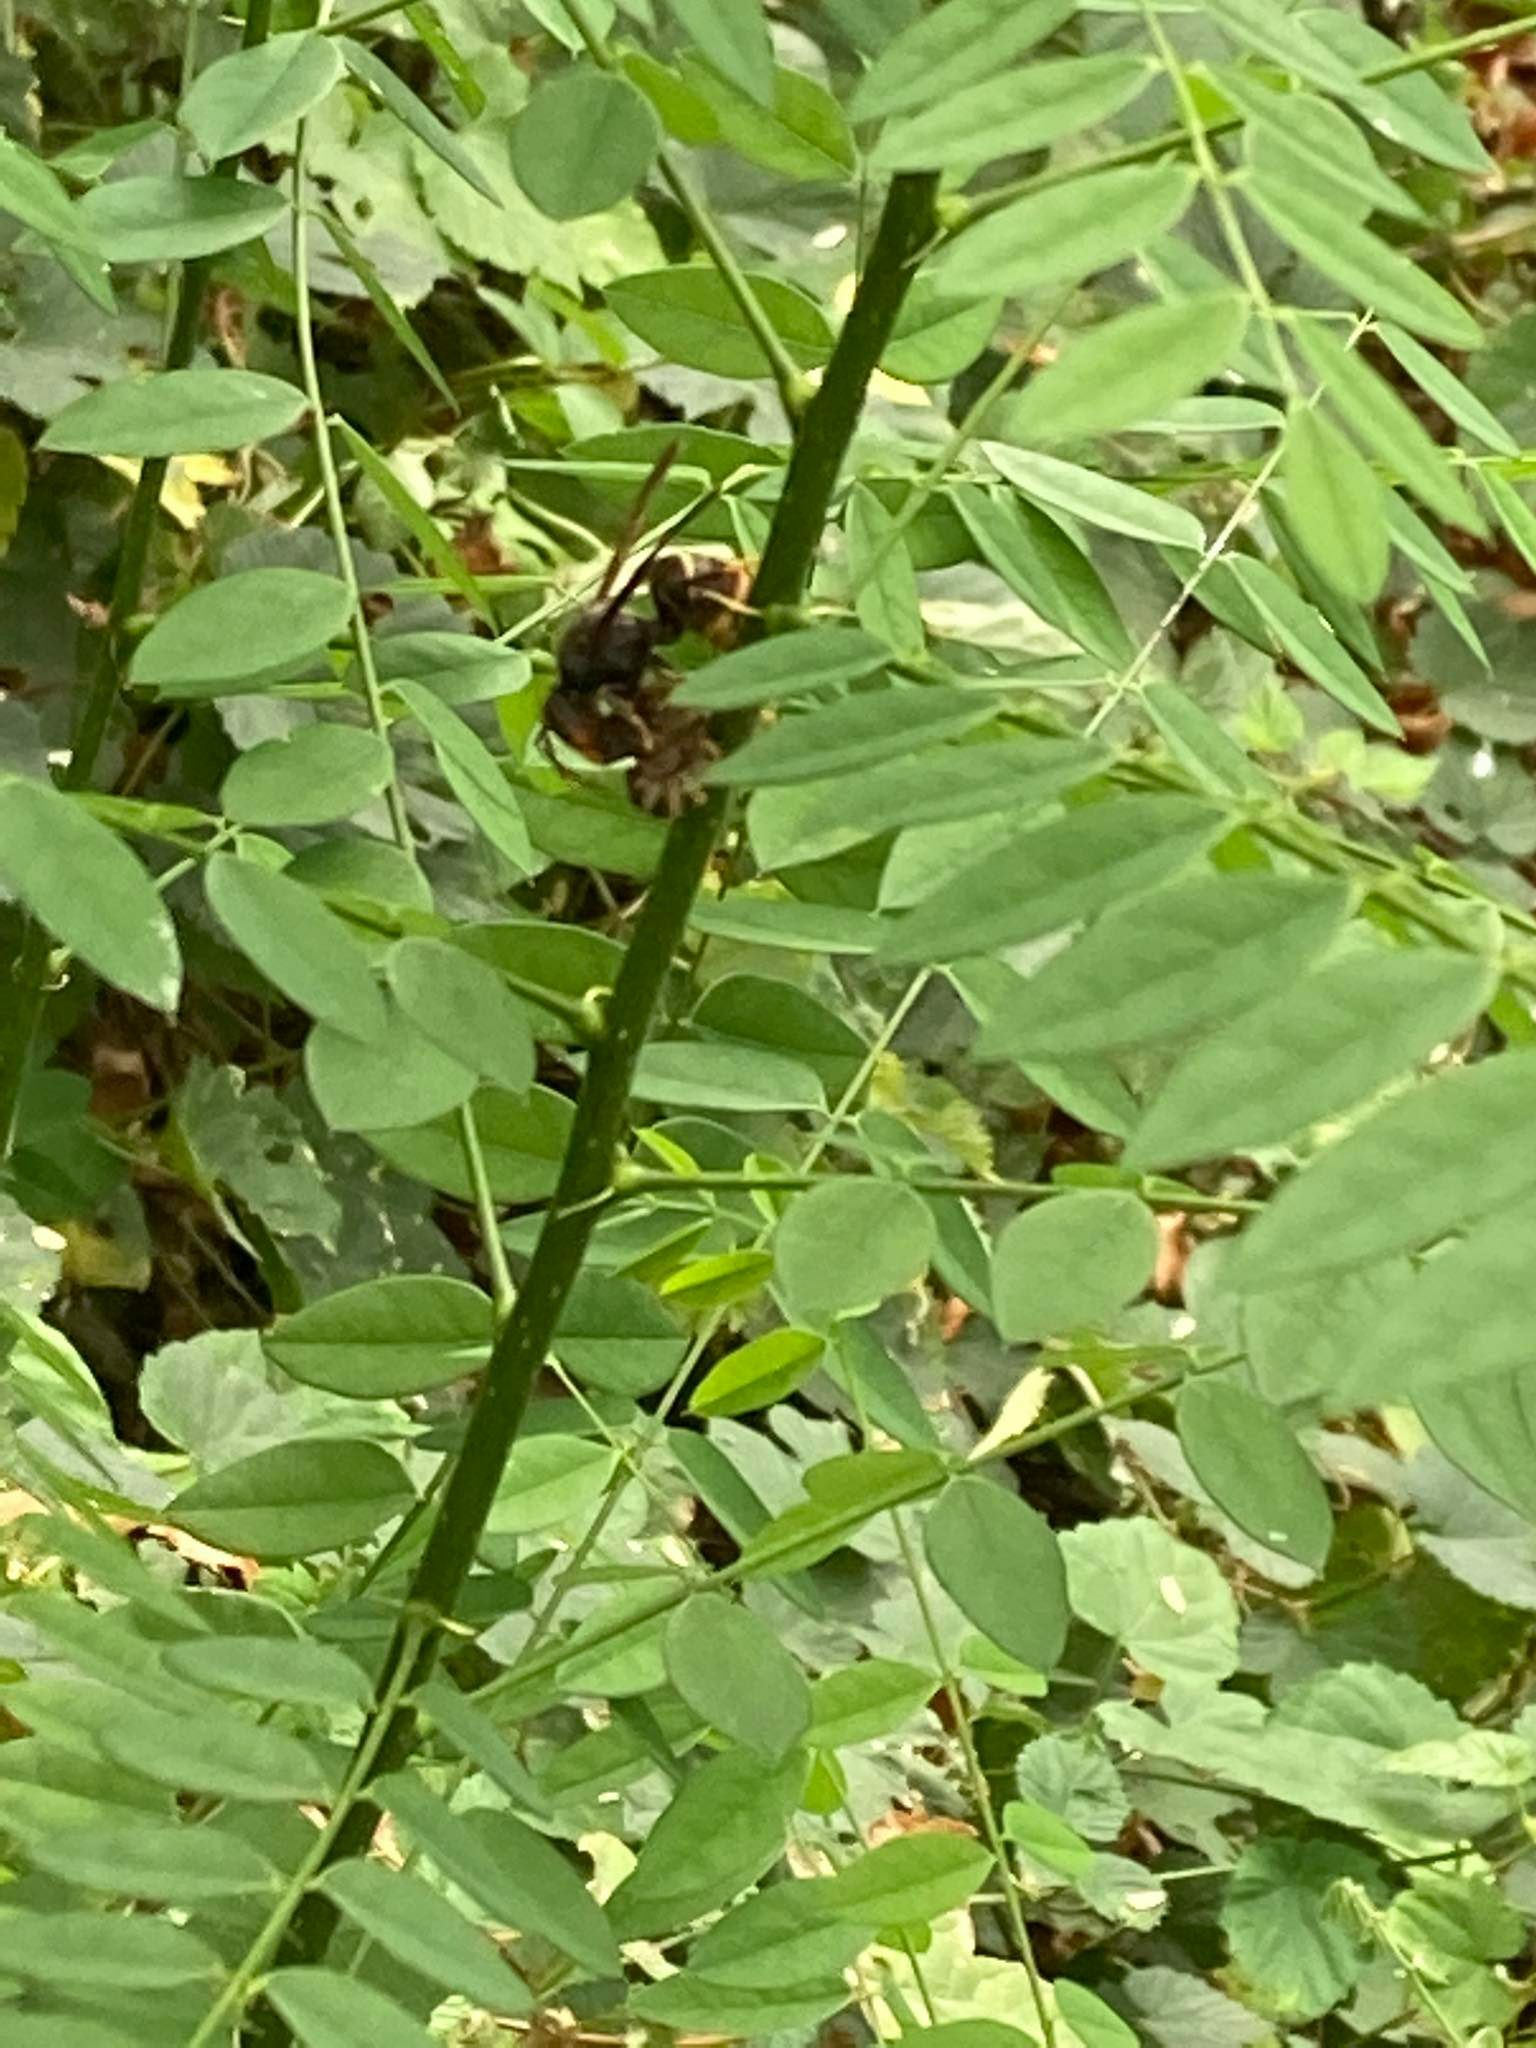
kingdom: Animalia
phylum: Arthropoda
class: Insecta
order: Hymenoptera
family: Vespidae
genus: Vespa
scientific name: Vespa velutina
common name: Asian hornet
